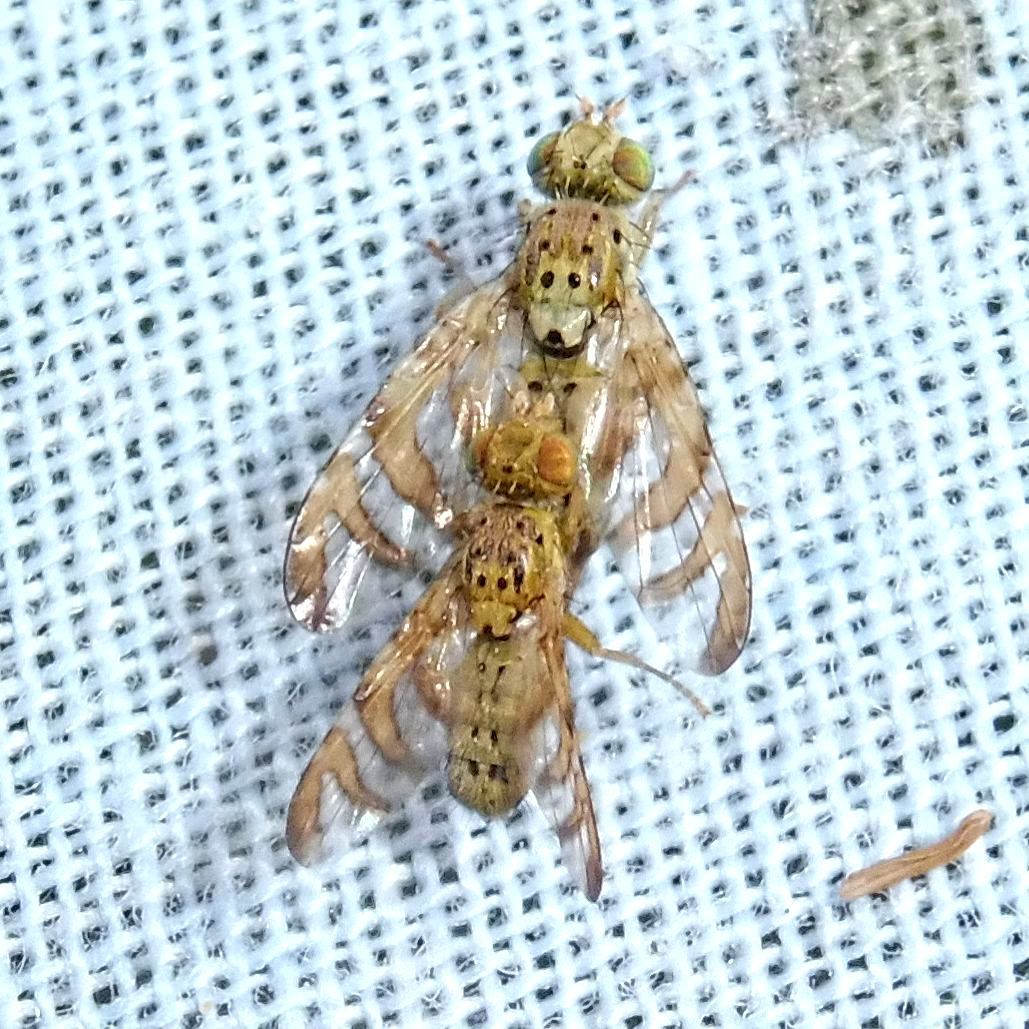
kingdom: Animalia
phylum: Arthropoda
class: Insecta
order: Diptera
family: Tephritidae
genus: Chaetorellia
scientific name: Chaetorellia jaceae
